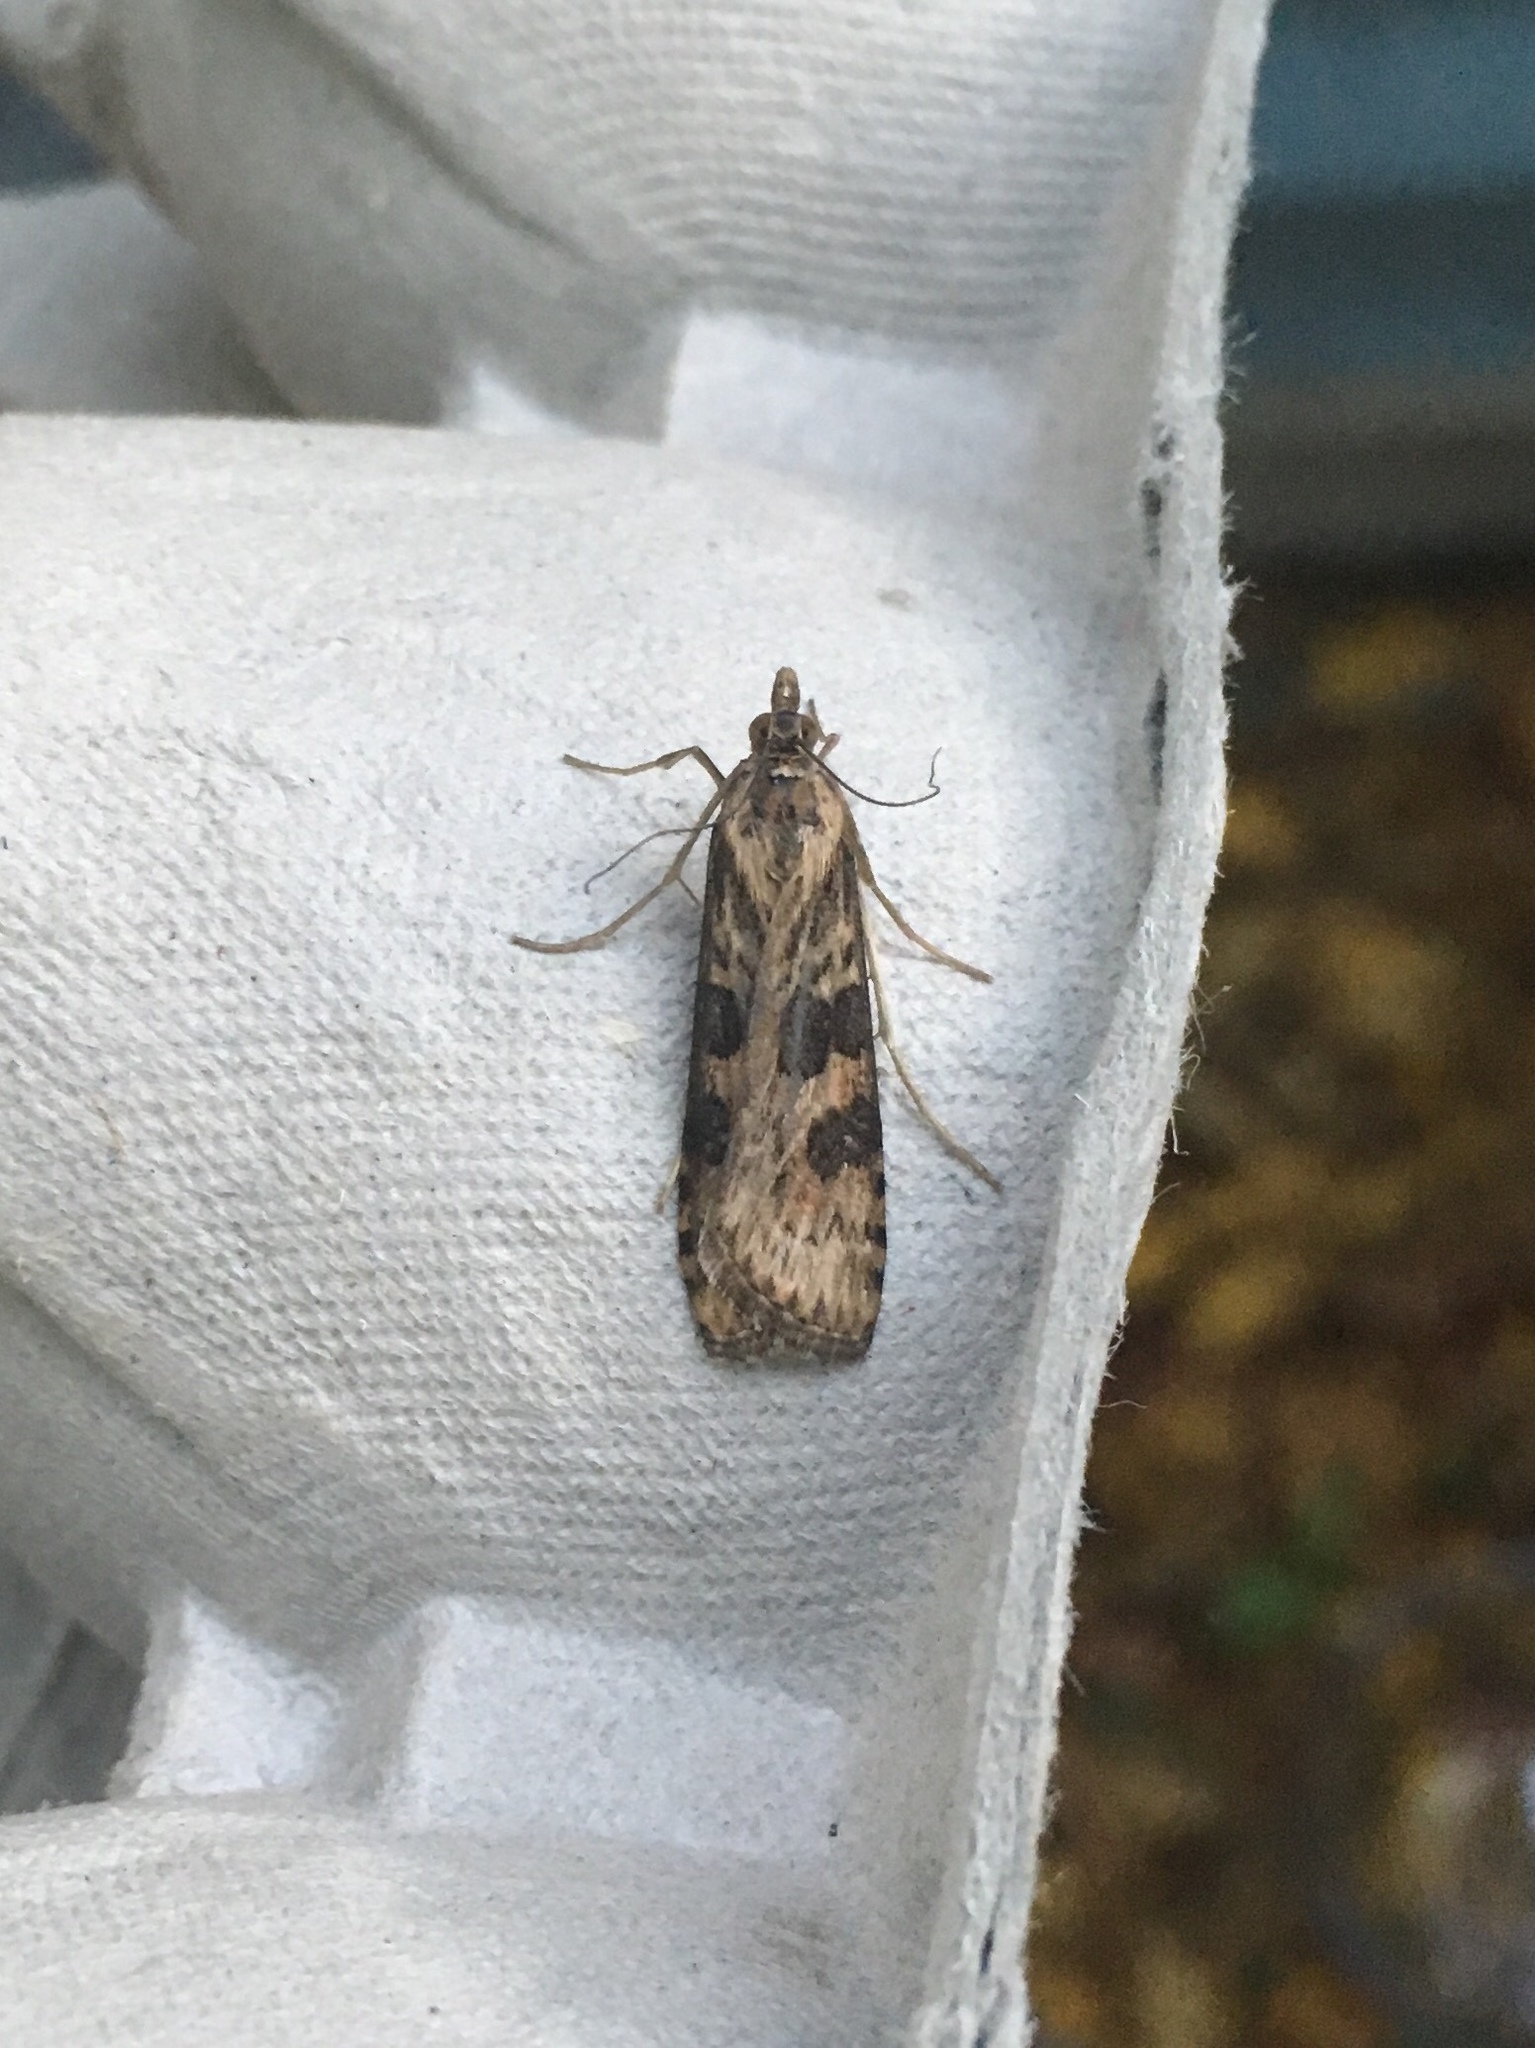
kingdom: Animalia
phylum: Arthropoda
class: Insecta
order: Lepidoptera
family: Crambidae
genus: Nomophila
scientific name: Nomophila nearctica
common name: American rush veneer
